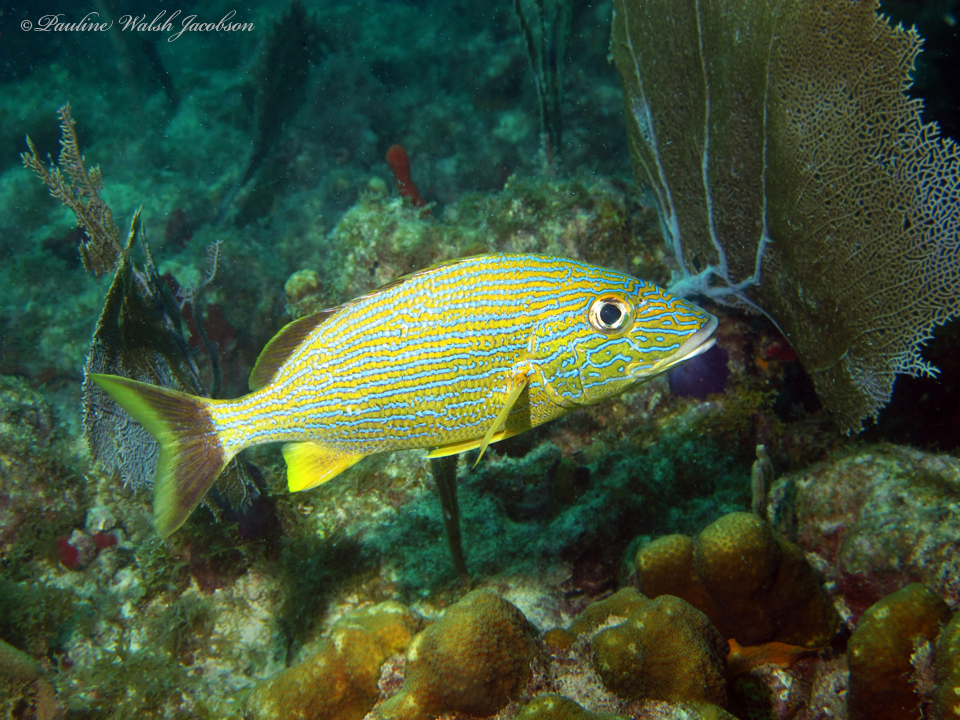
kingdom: Animalia
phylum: Chordata
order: Perciformes
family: Haemulidae
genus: Haemulon
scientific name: Haemulon sciurus
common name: Bluestriped grunt
